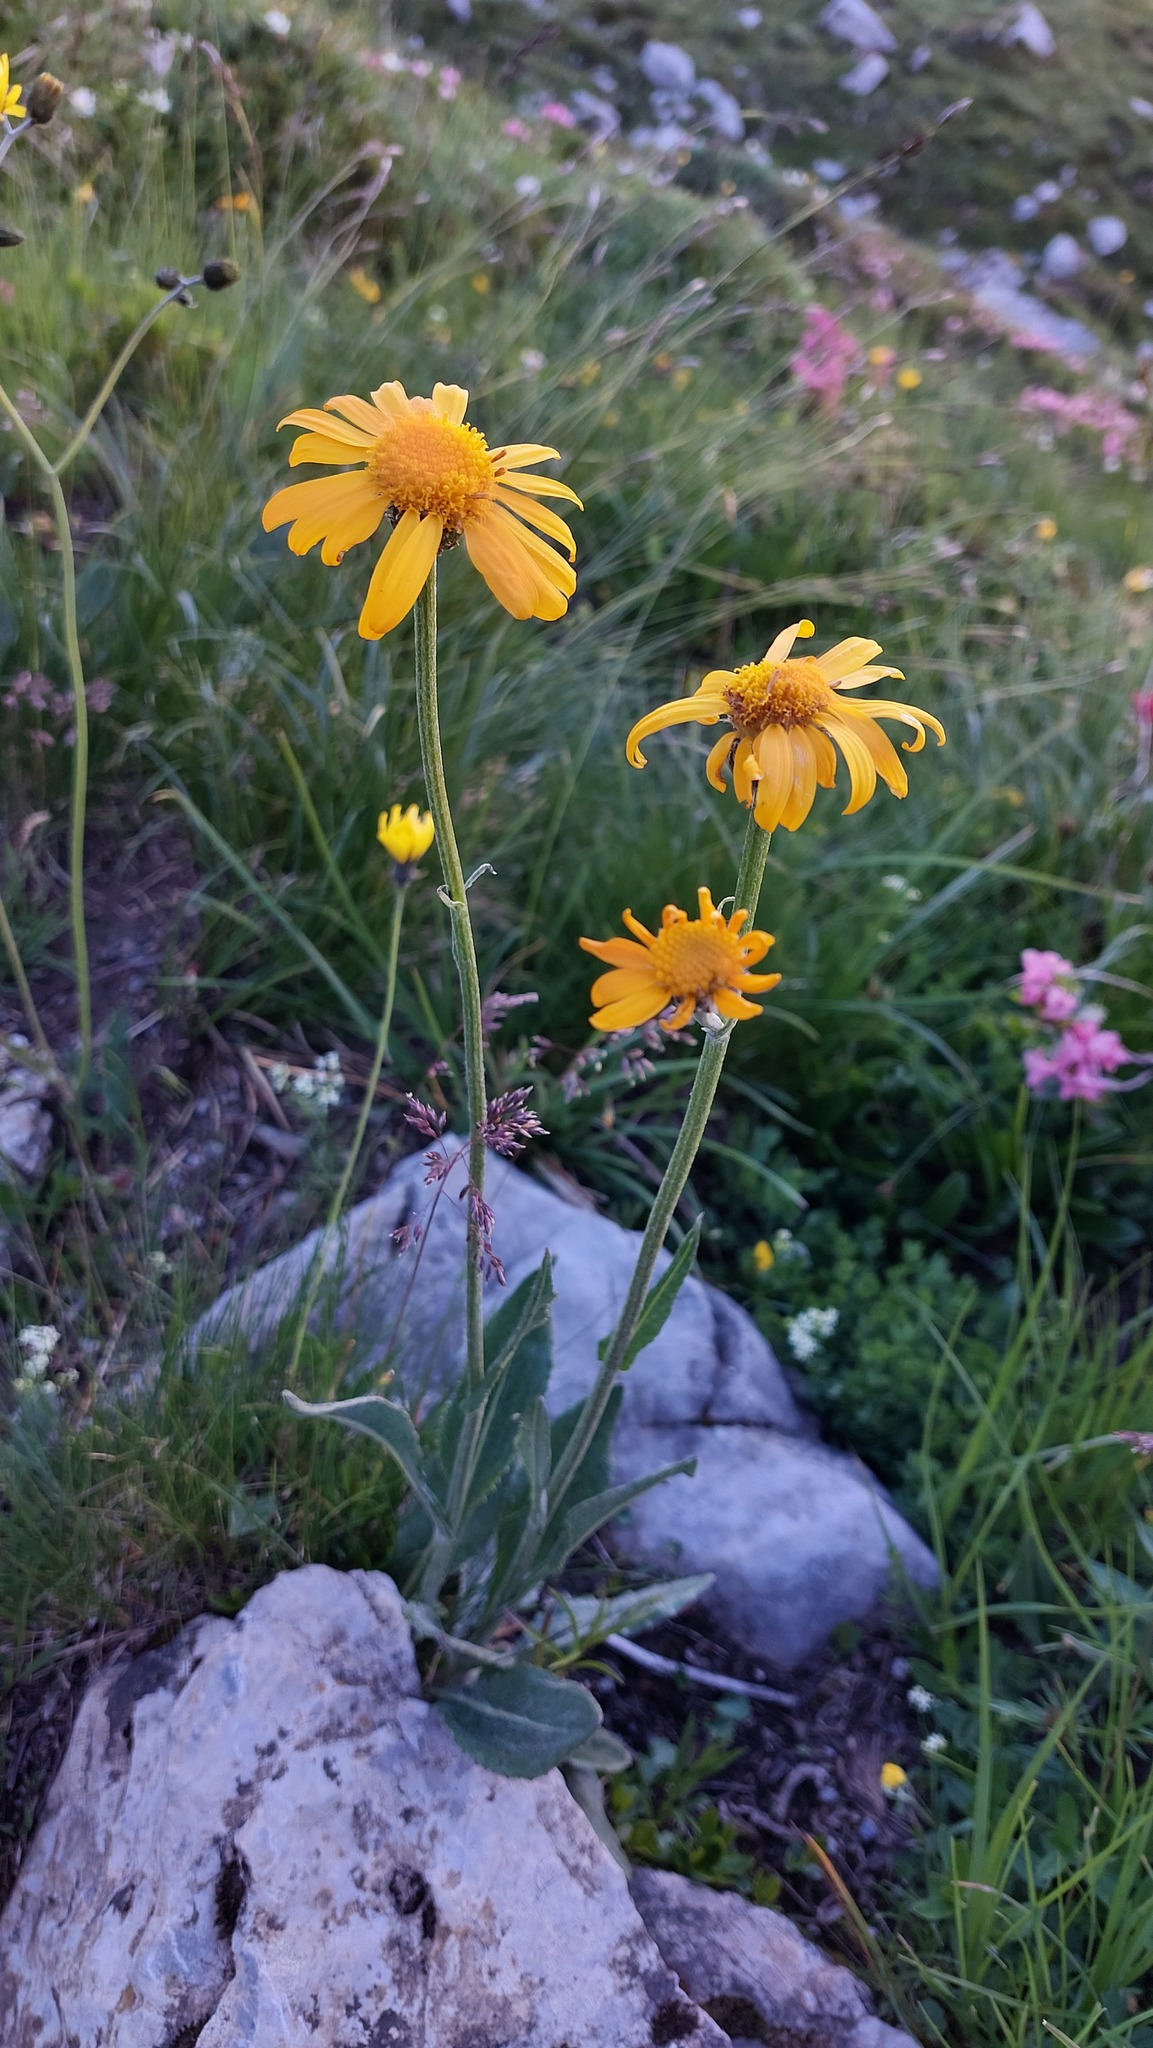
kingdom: Plantae
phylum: Tracheophyta
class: Magnoliopsida
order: Asterales
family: Asteraceae
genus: Senecio
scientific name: Senecio doronicum
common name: Chamois ragwort
